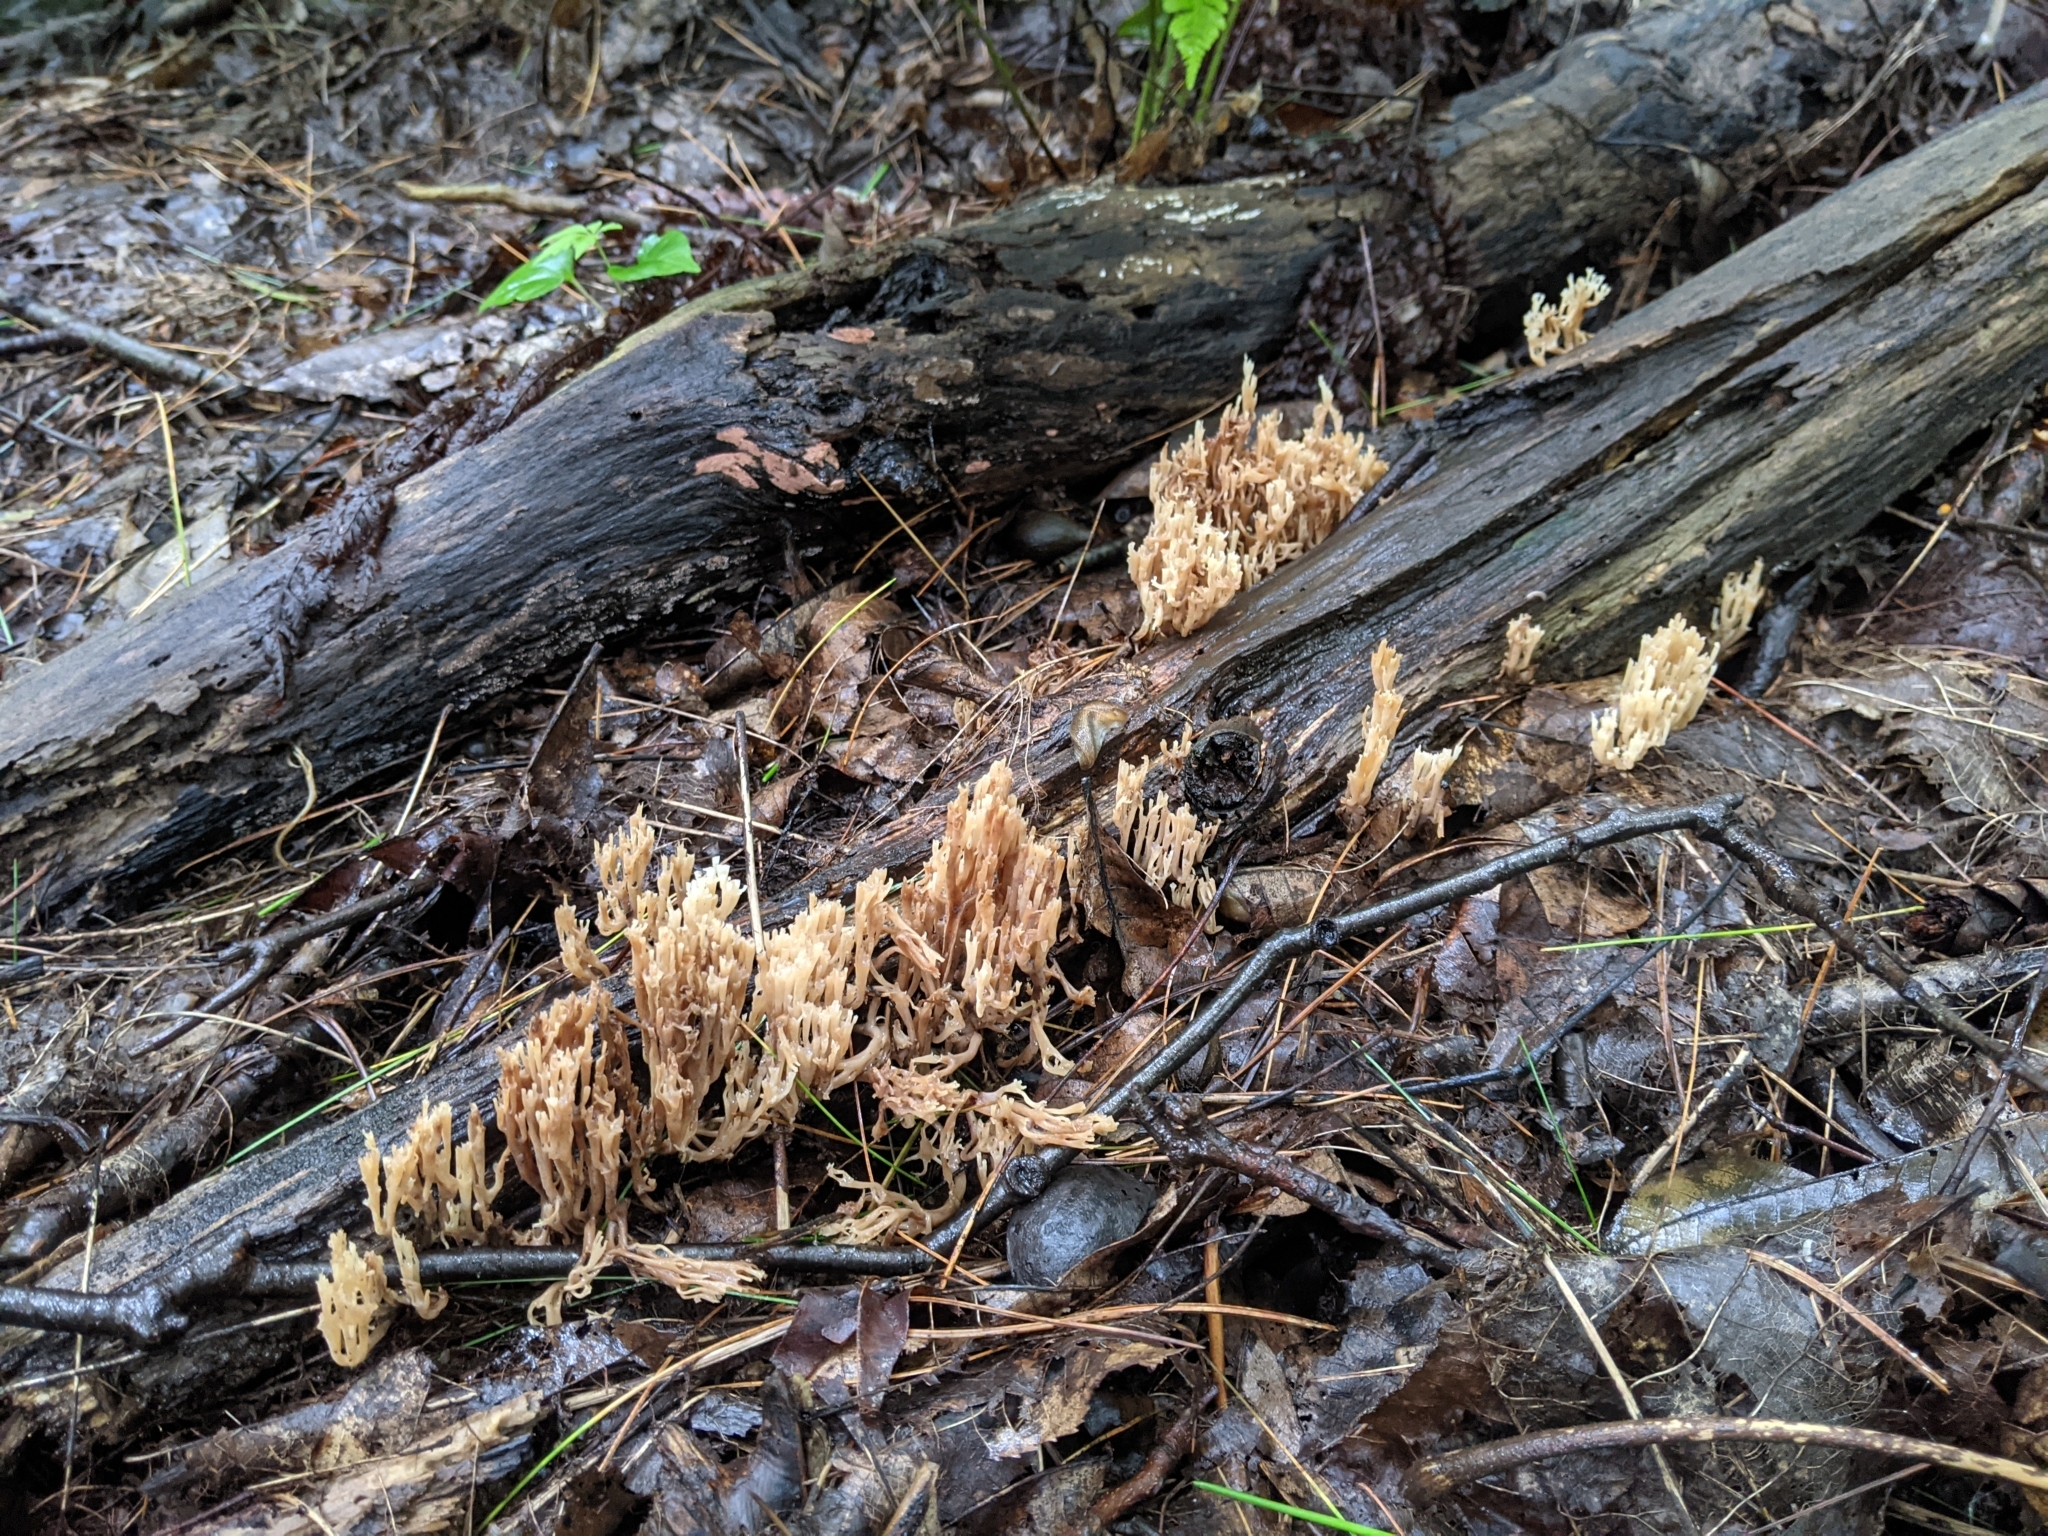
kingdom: Fungi
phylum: Basidiomycota
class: Agaricomycetes
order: Russulales
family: Auriscalpiaceae
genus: Artomyces
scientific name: Artomyces pyxidatus
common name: Crown-tipped coral fungus
